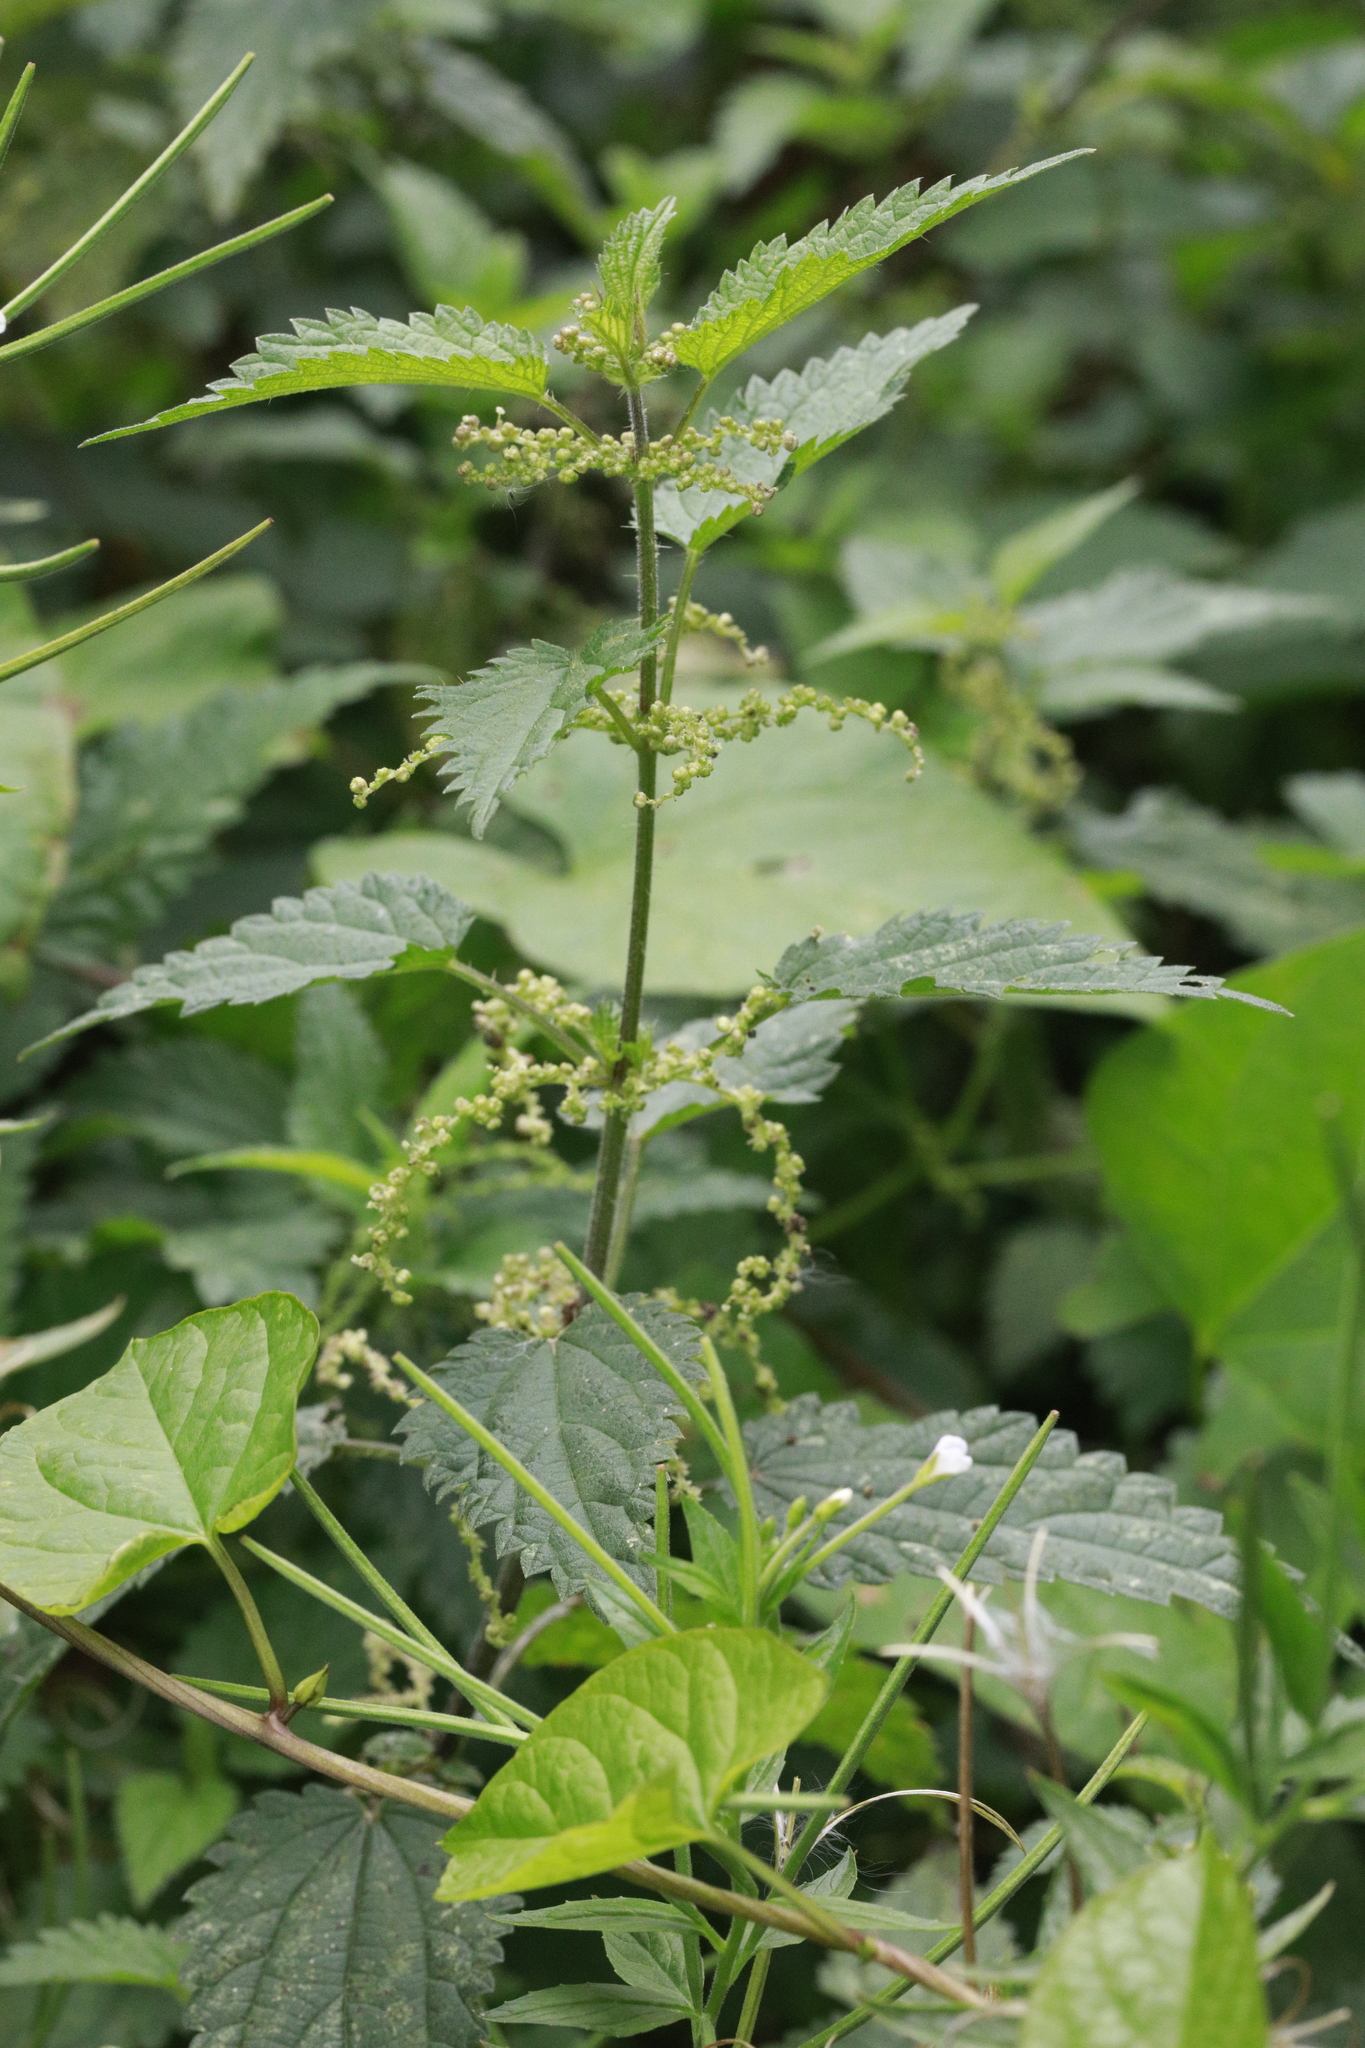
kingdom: Plantae
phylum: Tracheophyta
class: Magnoliopsida
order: Rosales
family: Urticaceae
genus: Urtica
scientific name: Urtica dioica
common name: Common nettle
